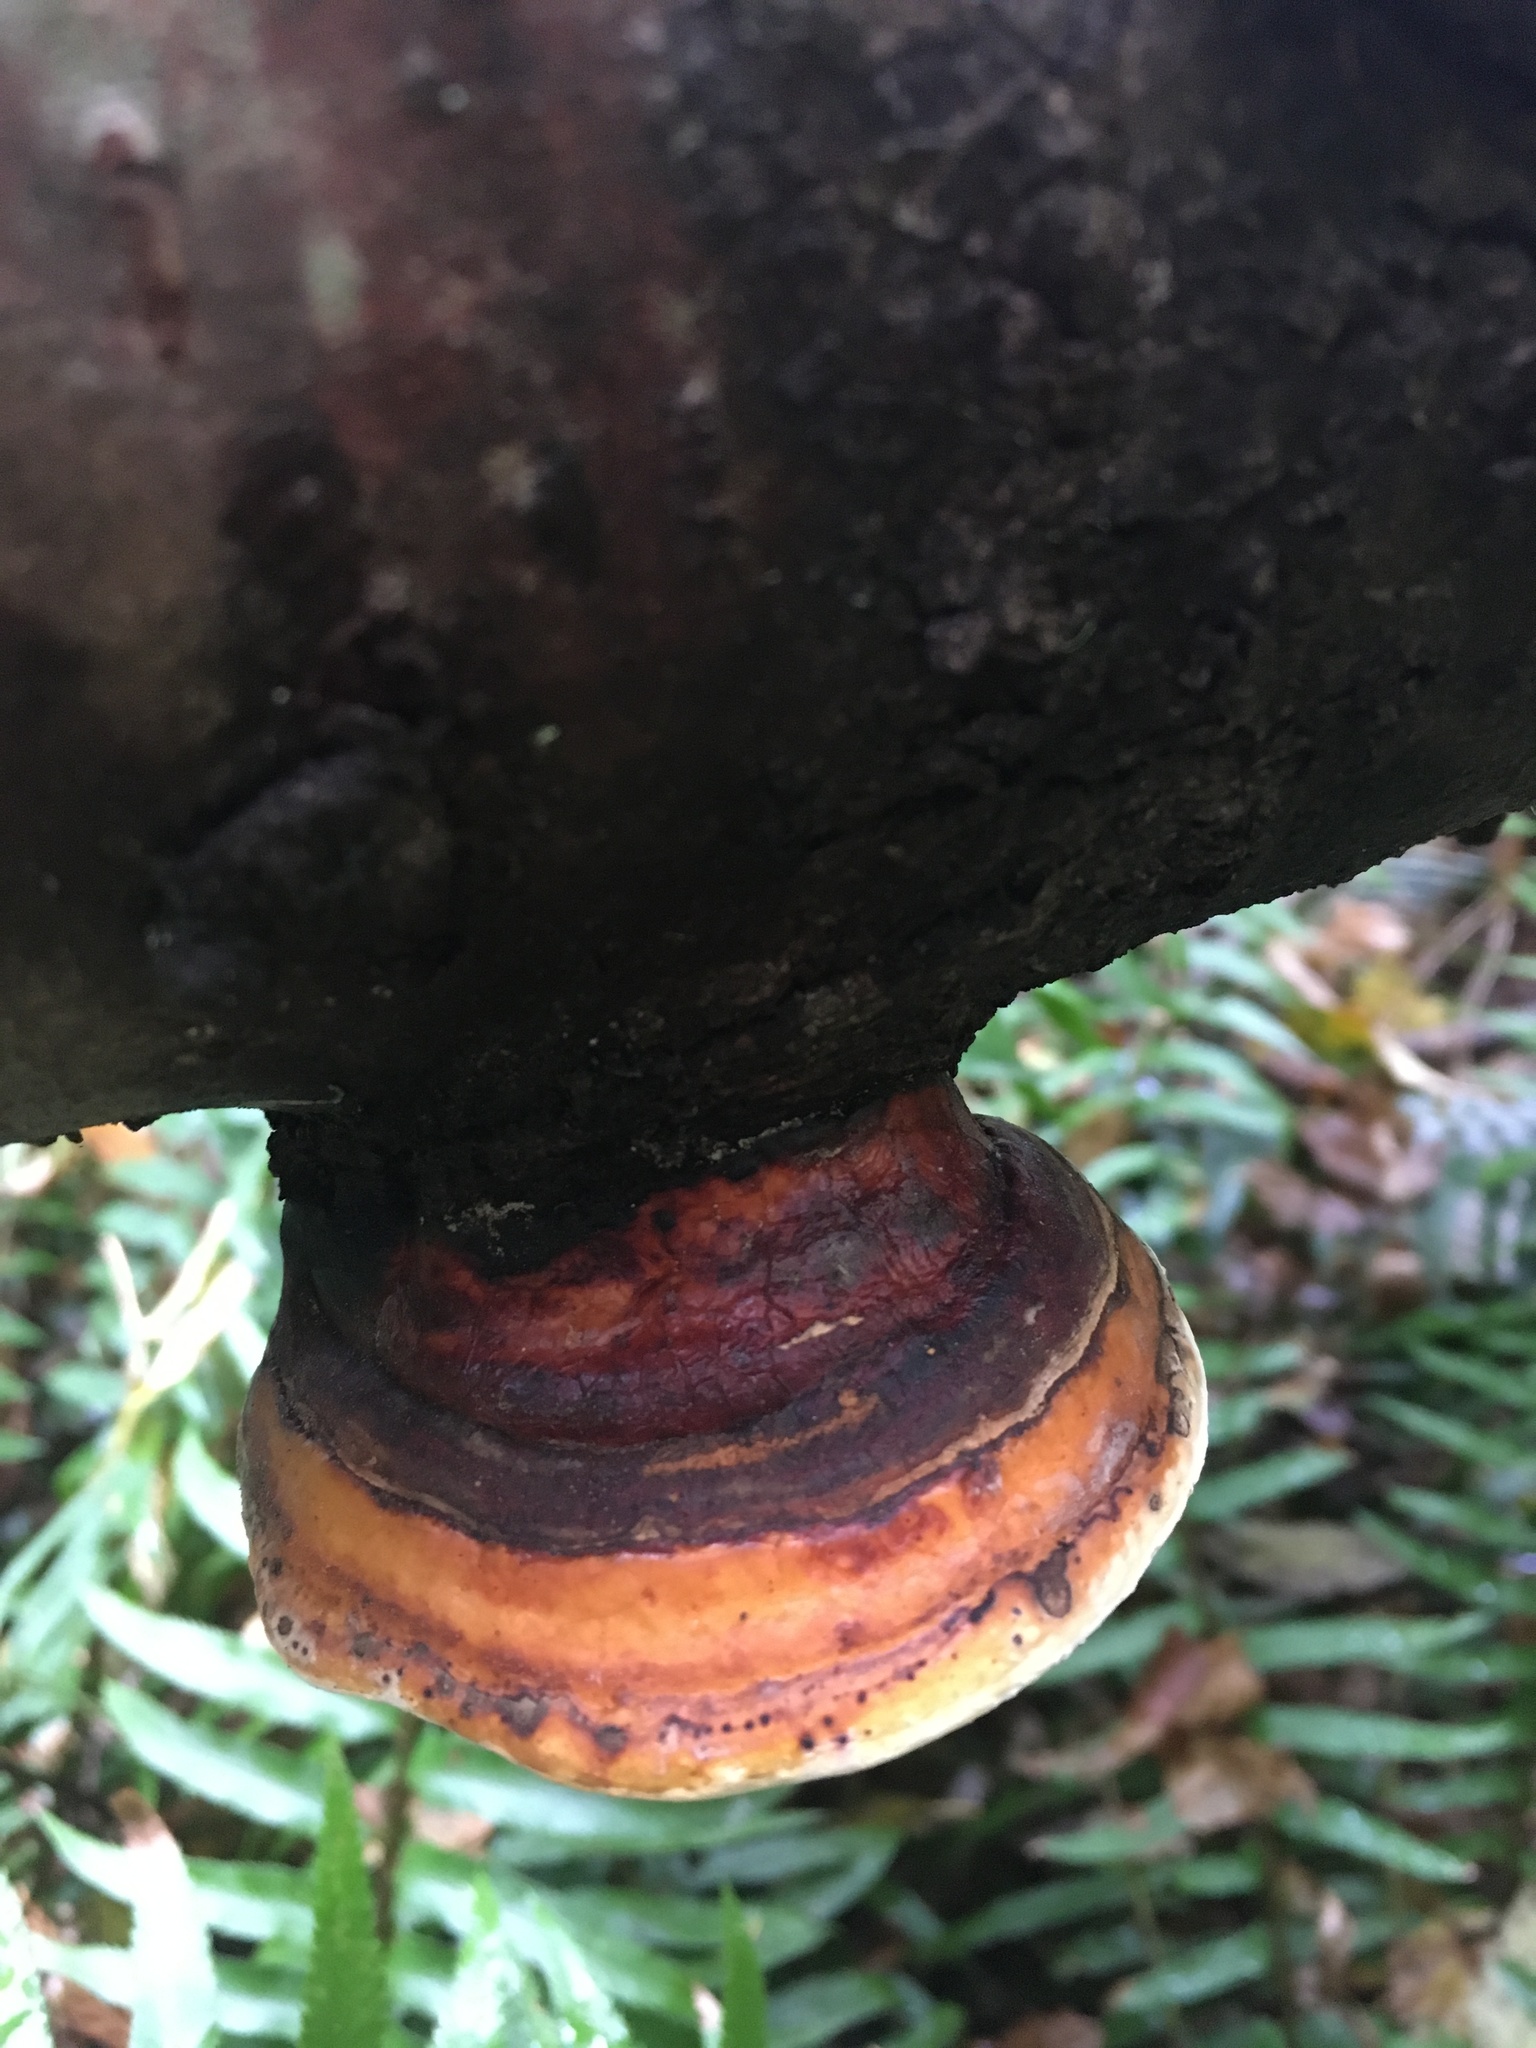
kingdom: Fungi
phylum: Basidiomycota
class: Agaricomycetes
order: Polyporales
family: Fomitopsidaceae
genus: Fomitopsis
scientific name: Fomitopsis mounceae
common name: Northern red belt
